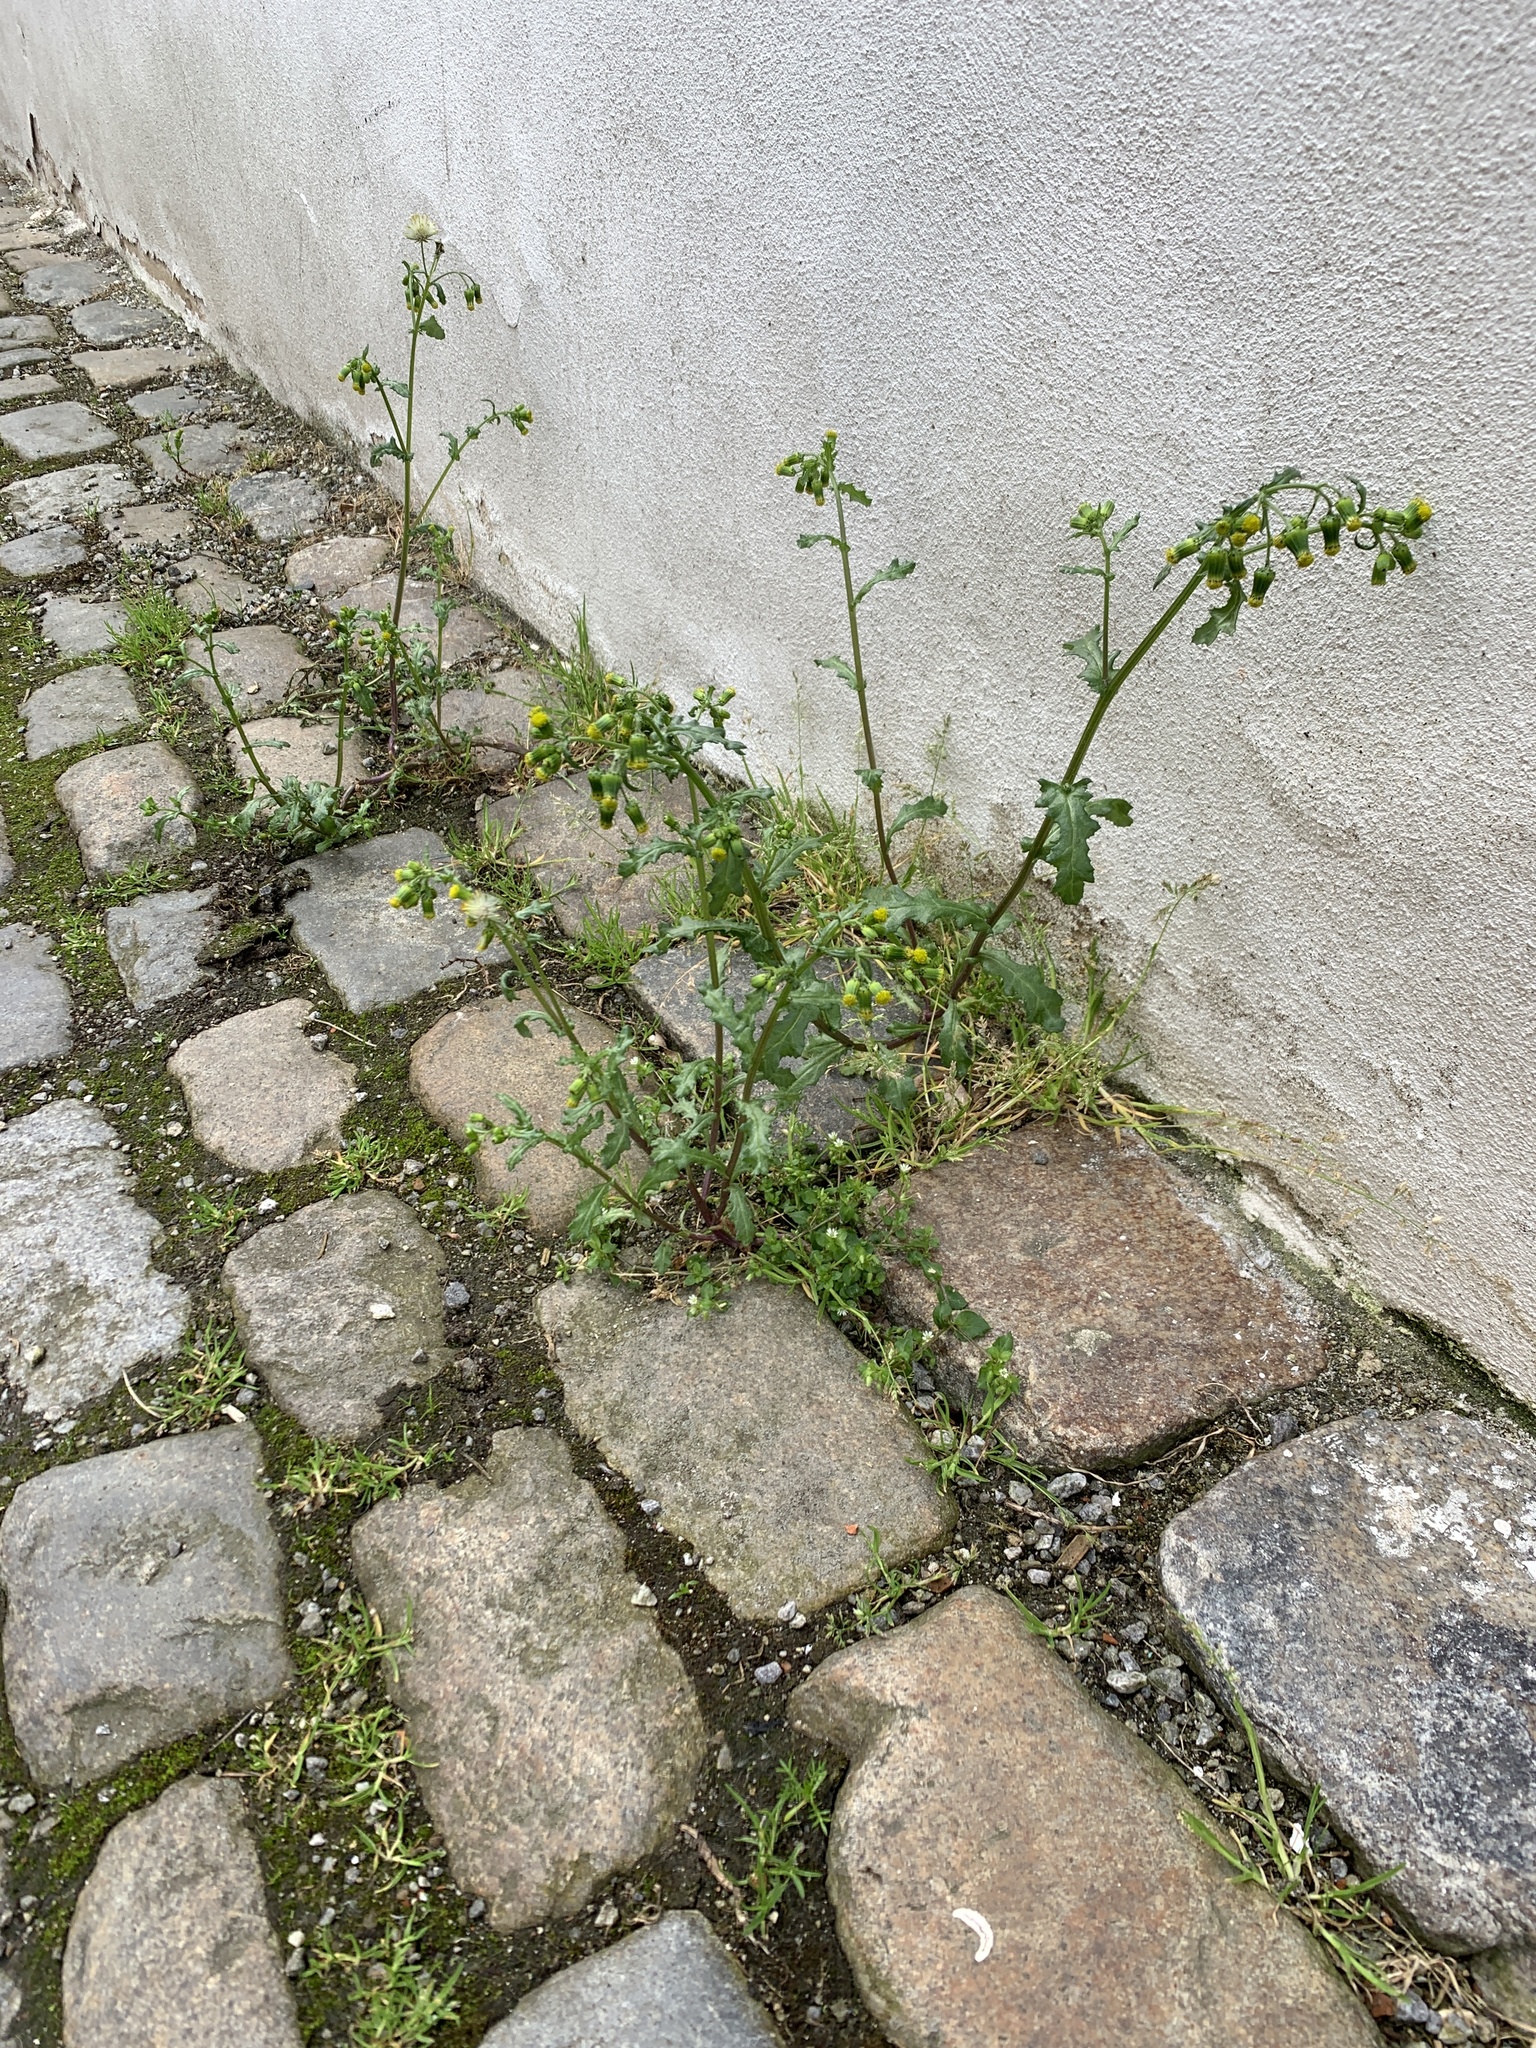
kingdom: Plantae
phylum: Tracheophyta
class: Magnoliopsida
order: Asterales
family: Asteraceae
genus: Senecio
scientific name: Senecio vulgaris
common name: Old-man-in-the-spring
